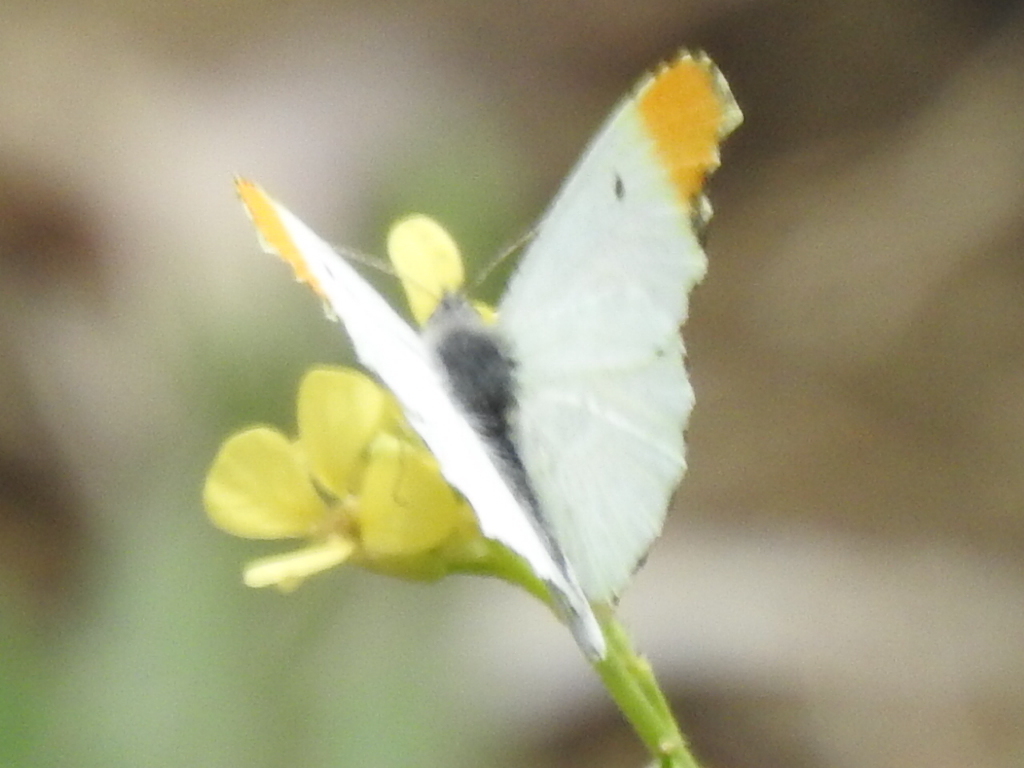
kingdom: Animalia
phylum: Arthropoda
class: Insecta
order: Lepidoptera
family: Pieridae
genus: Anthocharis
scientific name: Anthocharis midea
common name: Falcate orangetip
